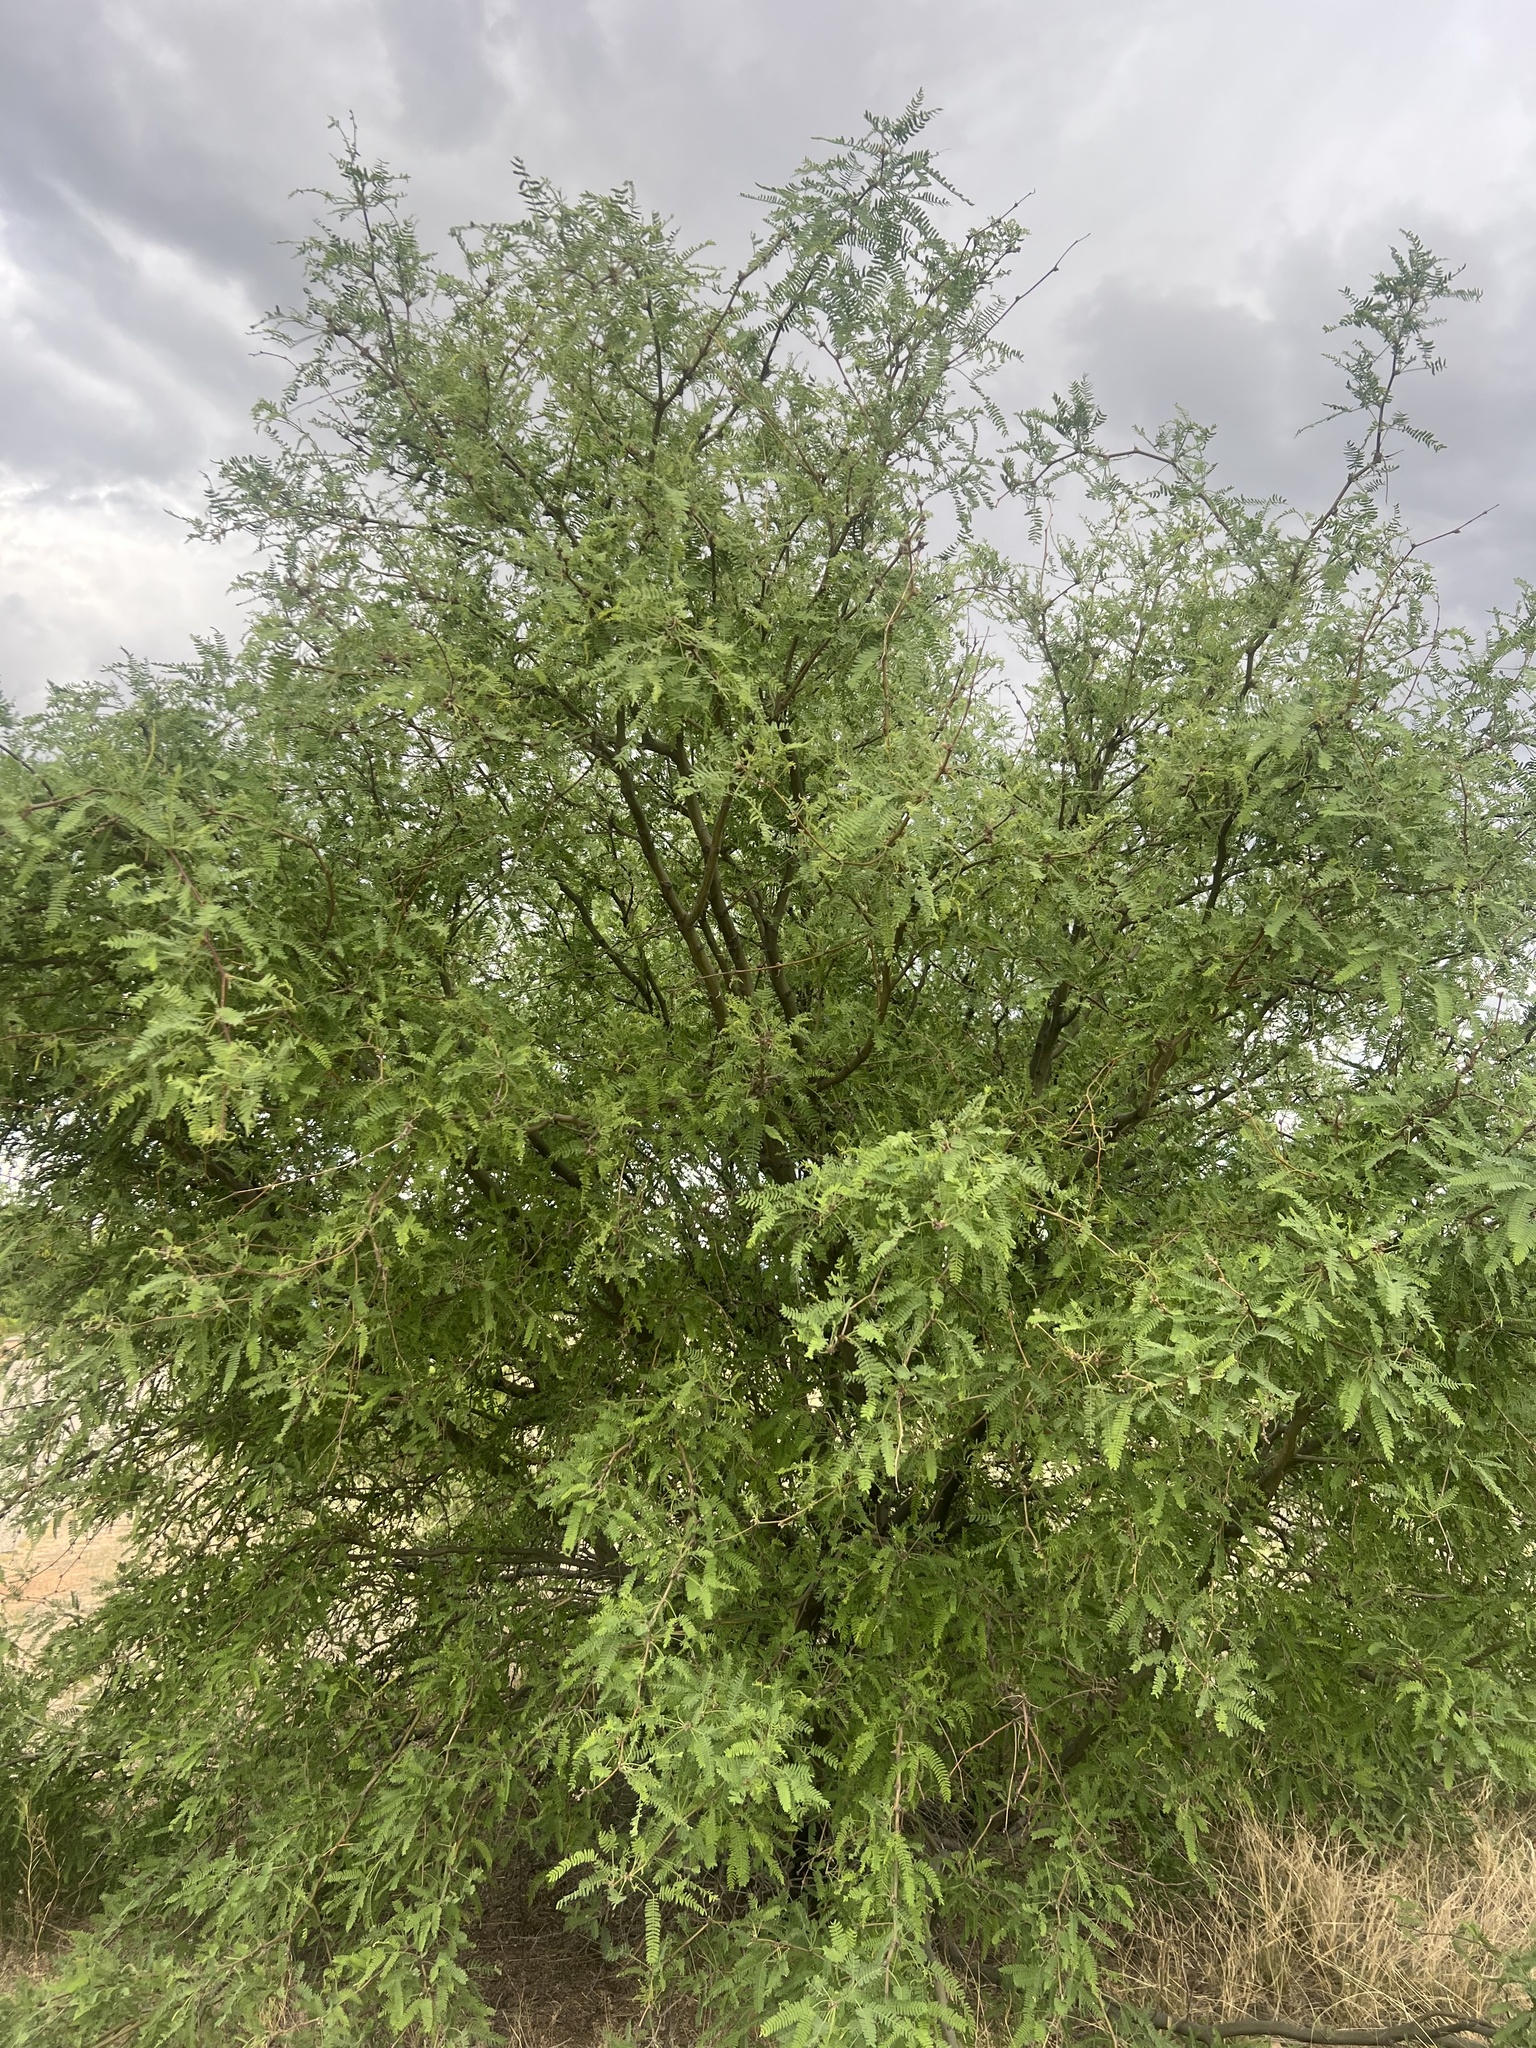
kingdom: Plantae
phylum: Tracheophyta
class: Magnoliopsida
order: Fabales
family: Fabaceae
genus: Prosopis
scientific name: Prosopis velutina
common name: Velvet mesquite
